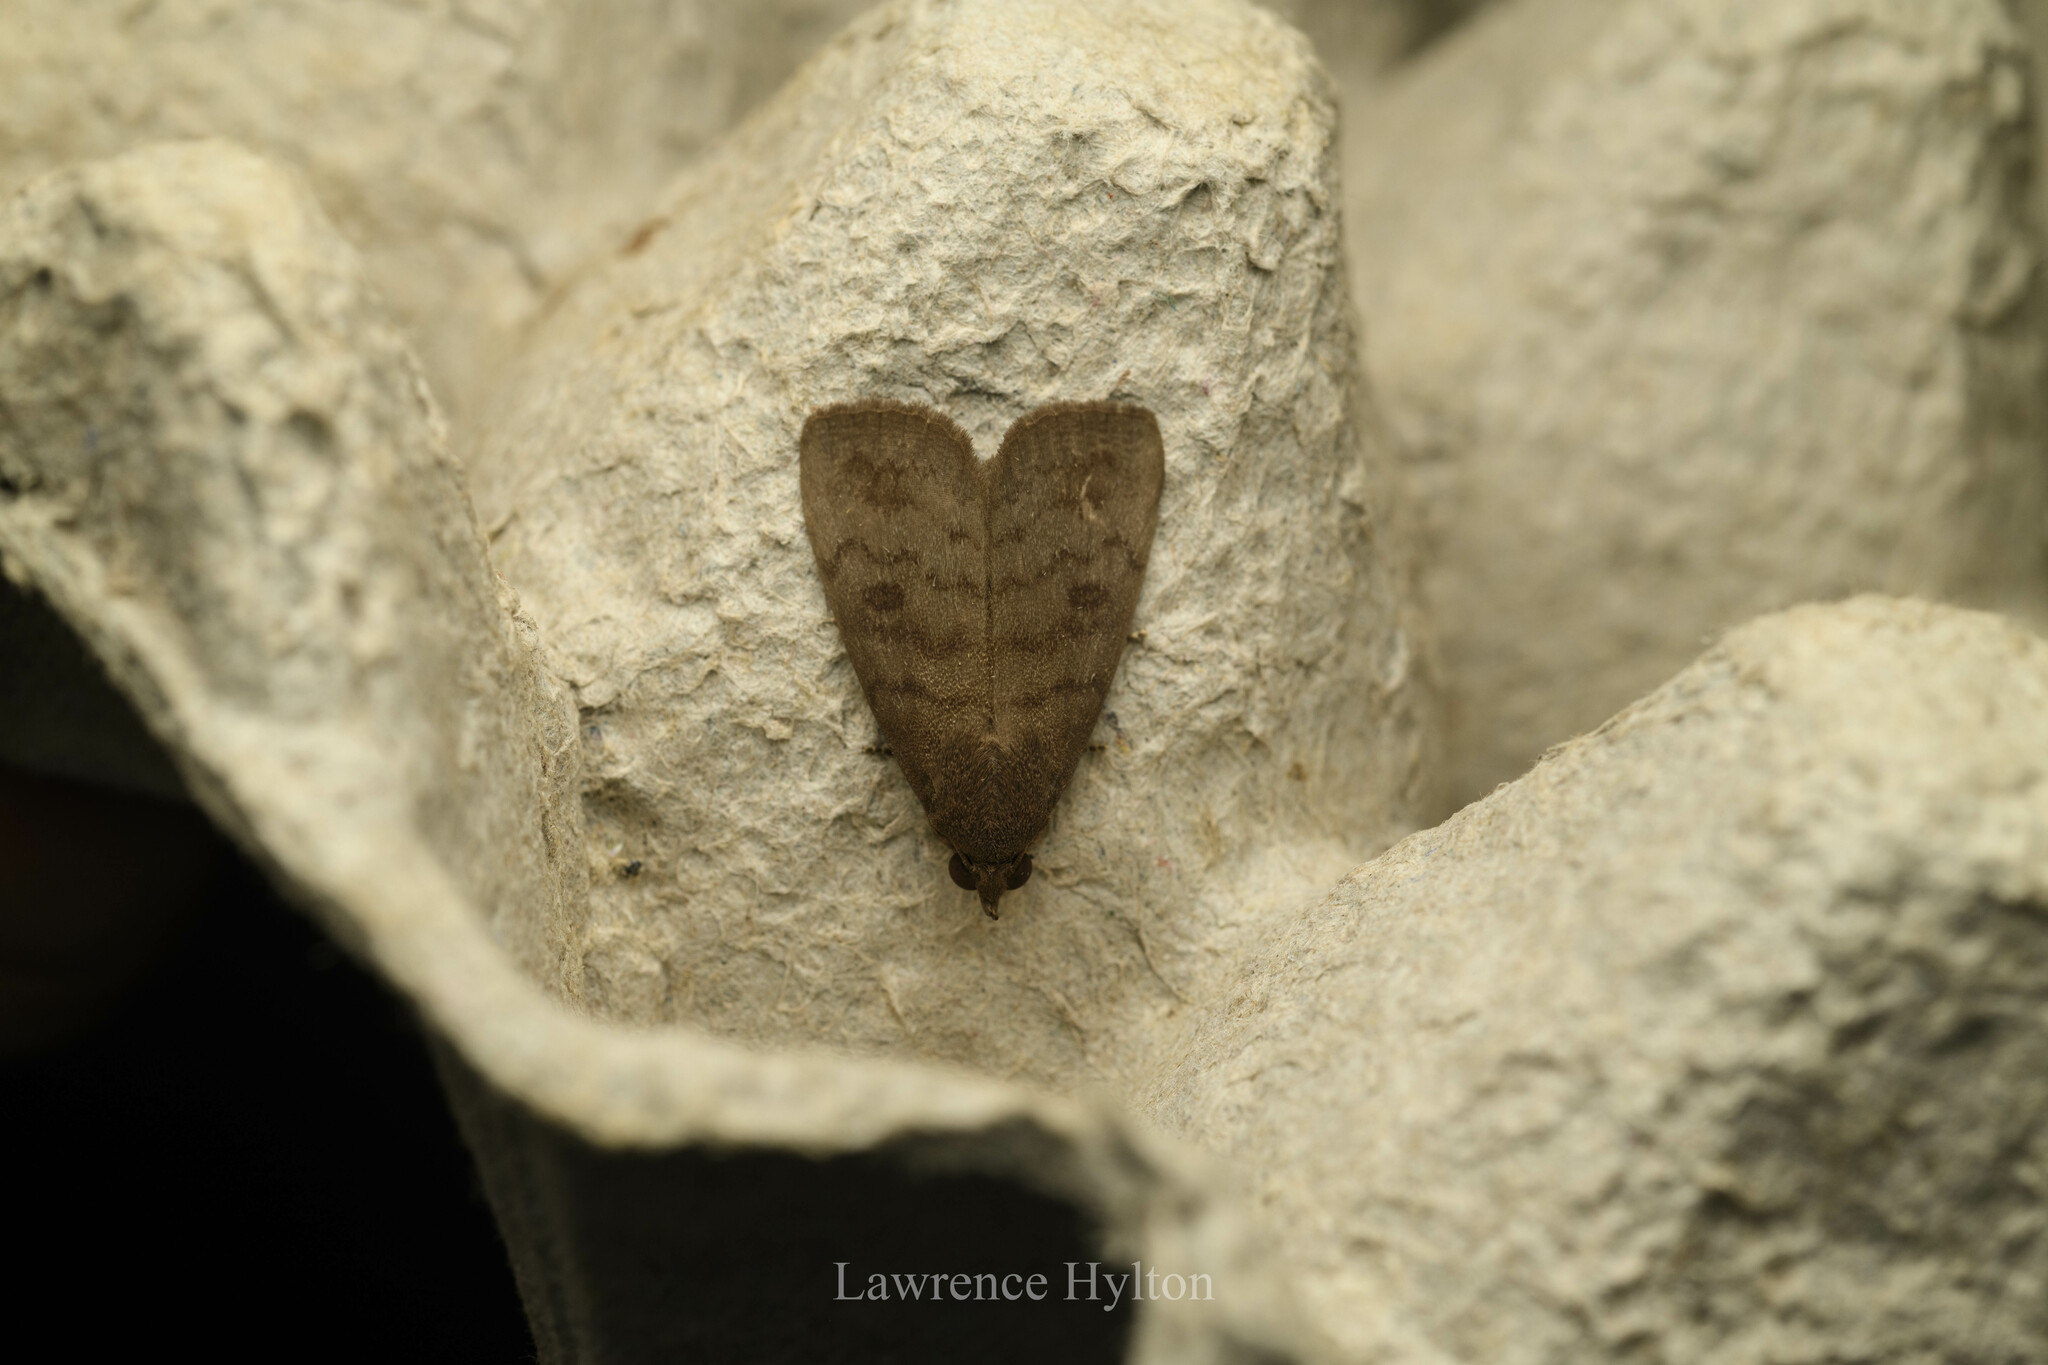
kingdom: Animalia
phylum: Arthropoda
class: Insecta
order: Lepidoptera
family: Erebidae
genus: Avitta
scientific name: Avitta fasciosa
